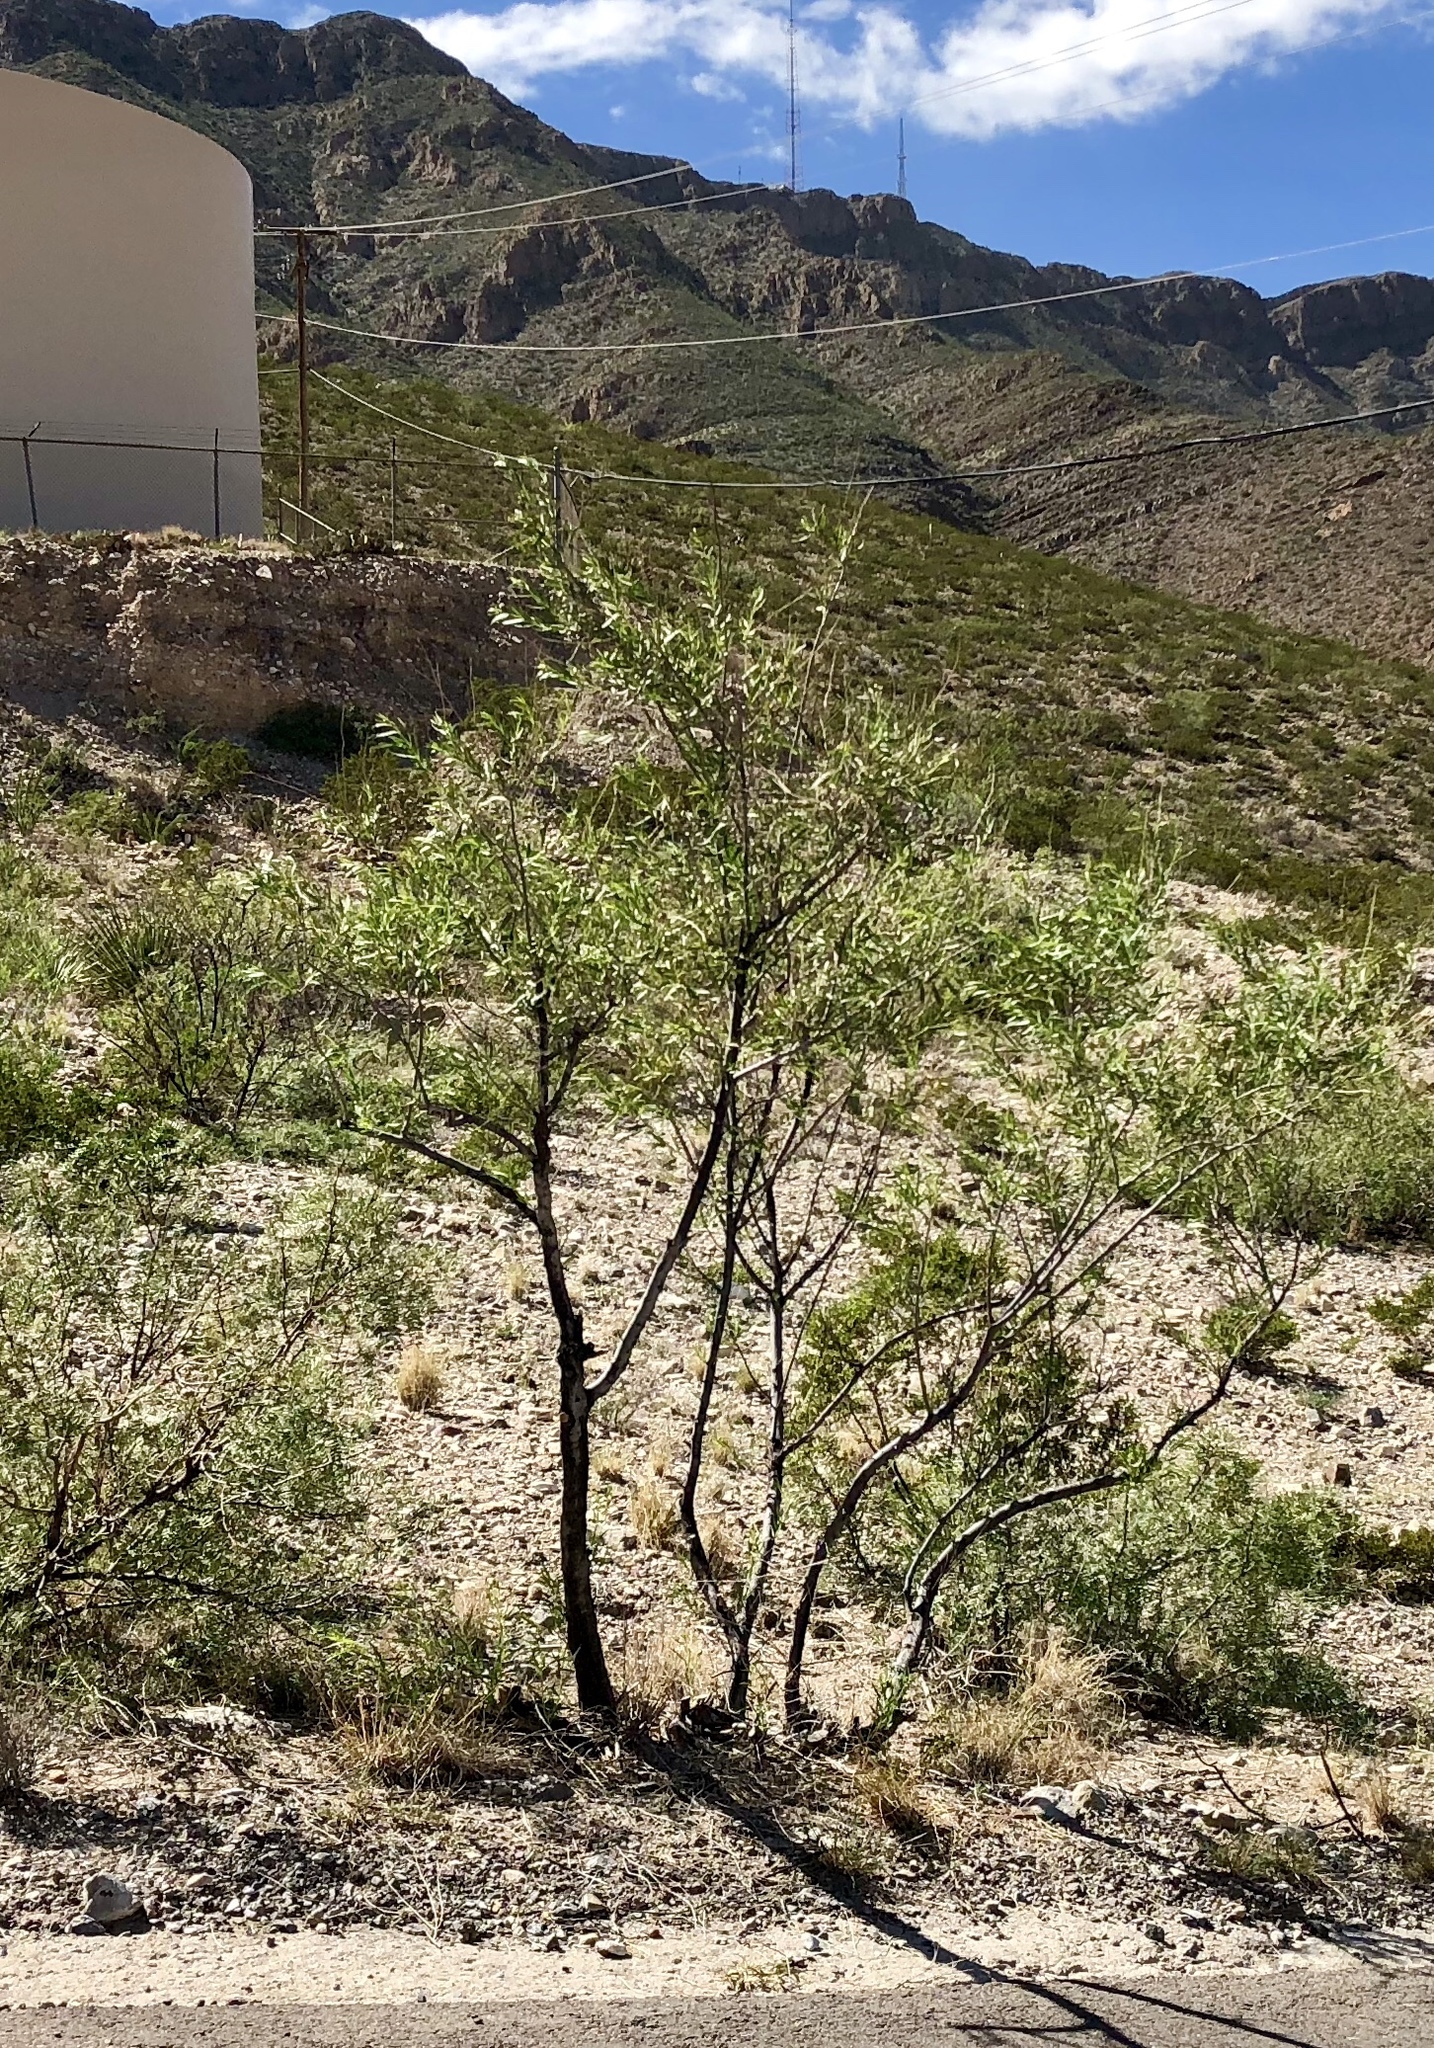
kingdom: Plantae
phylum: Tracheophyta
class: Magnoliopsida
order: Lamiales
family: Bignoniaceae
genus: Chilopsis
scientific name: Chilopsis linearis
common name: Desert-willow
